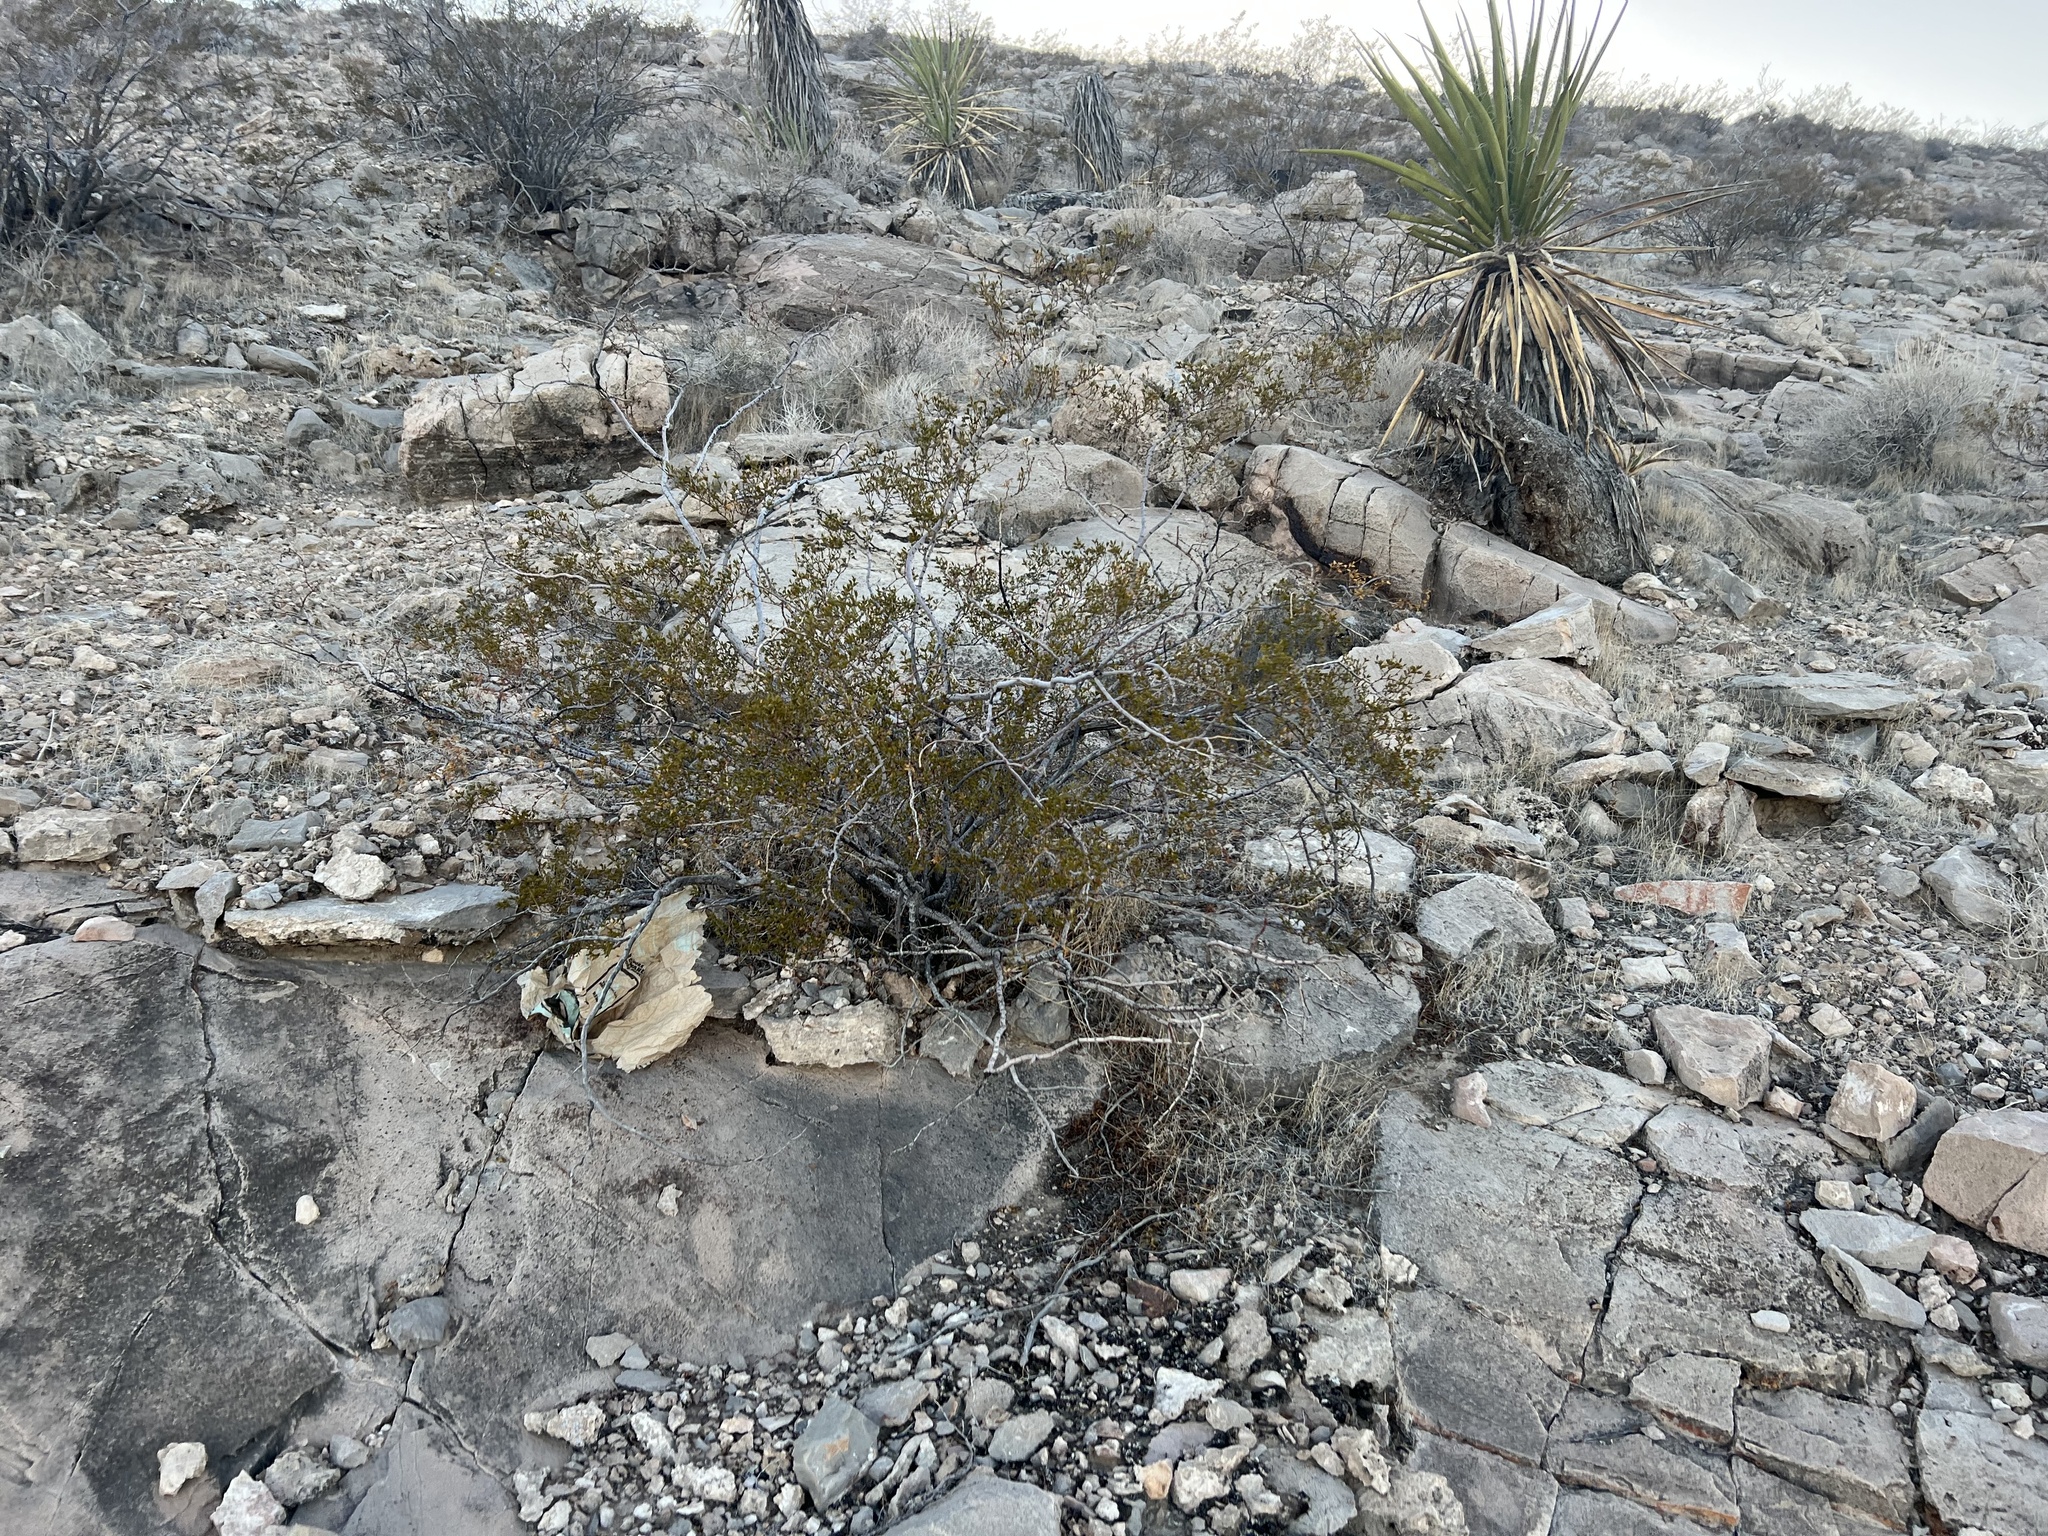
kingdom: Plantae
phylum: Tracheophyta
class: Magnoliopsida
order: Zygophyllales
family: Zygophyllaceae
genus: Larrea
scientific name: Larrea tridentata
